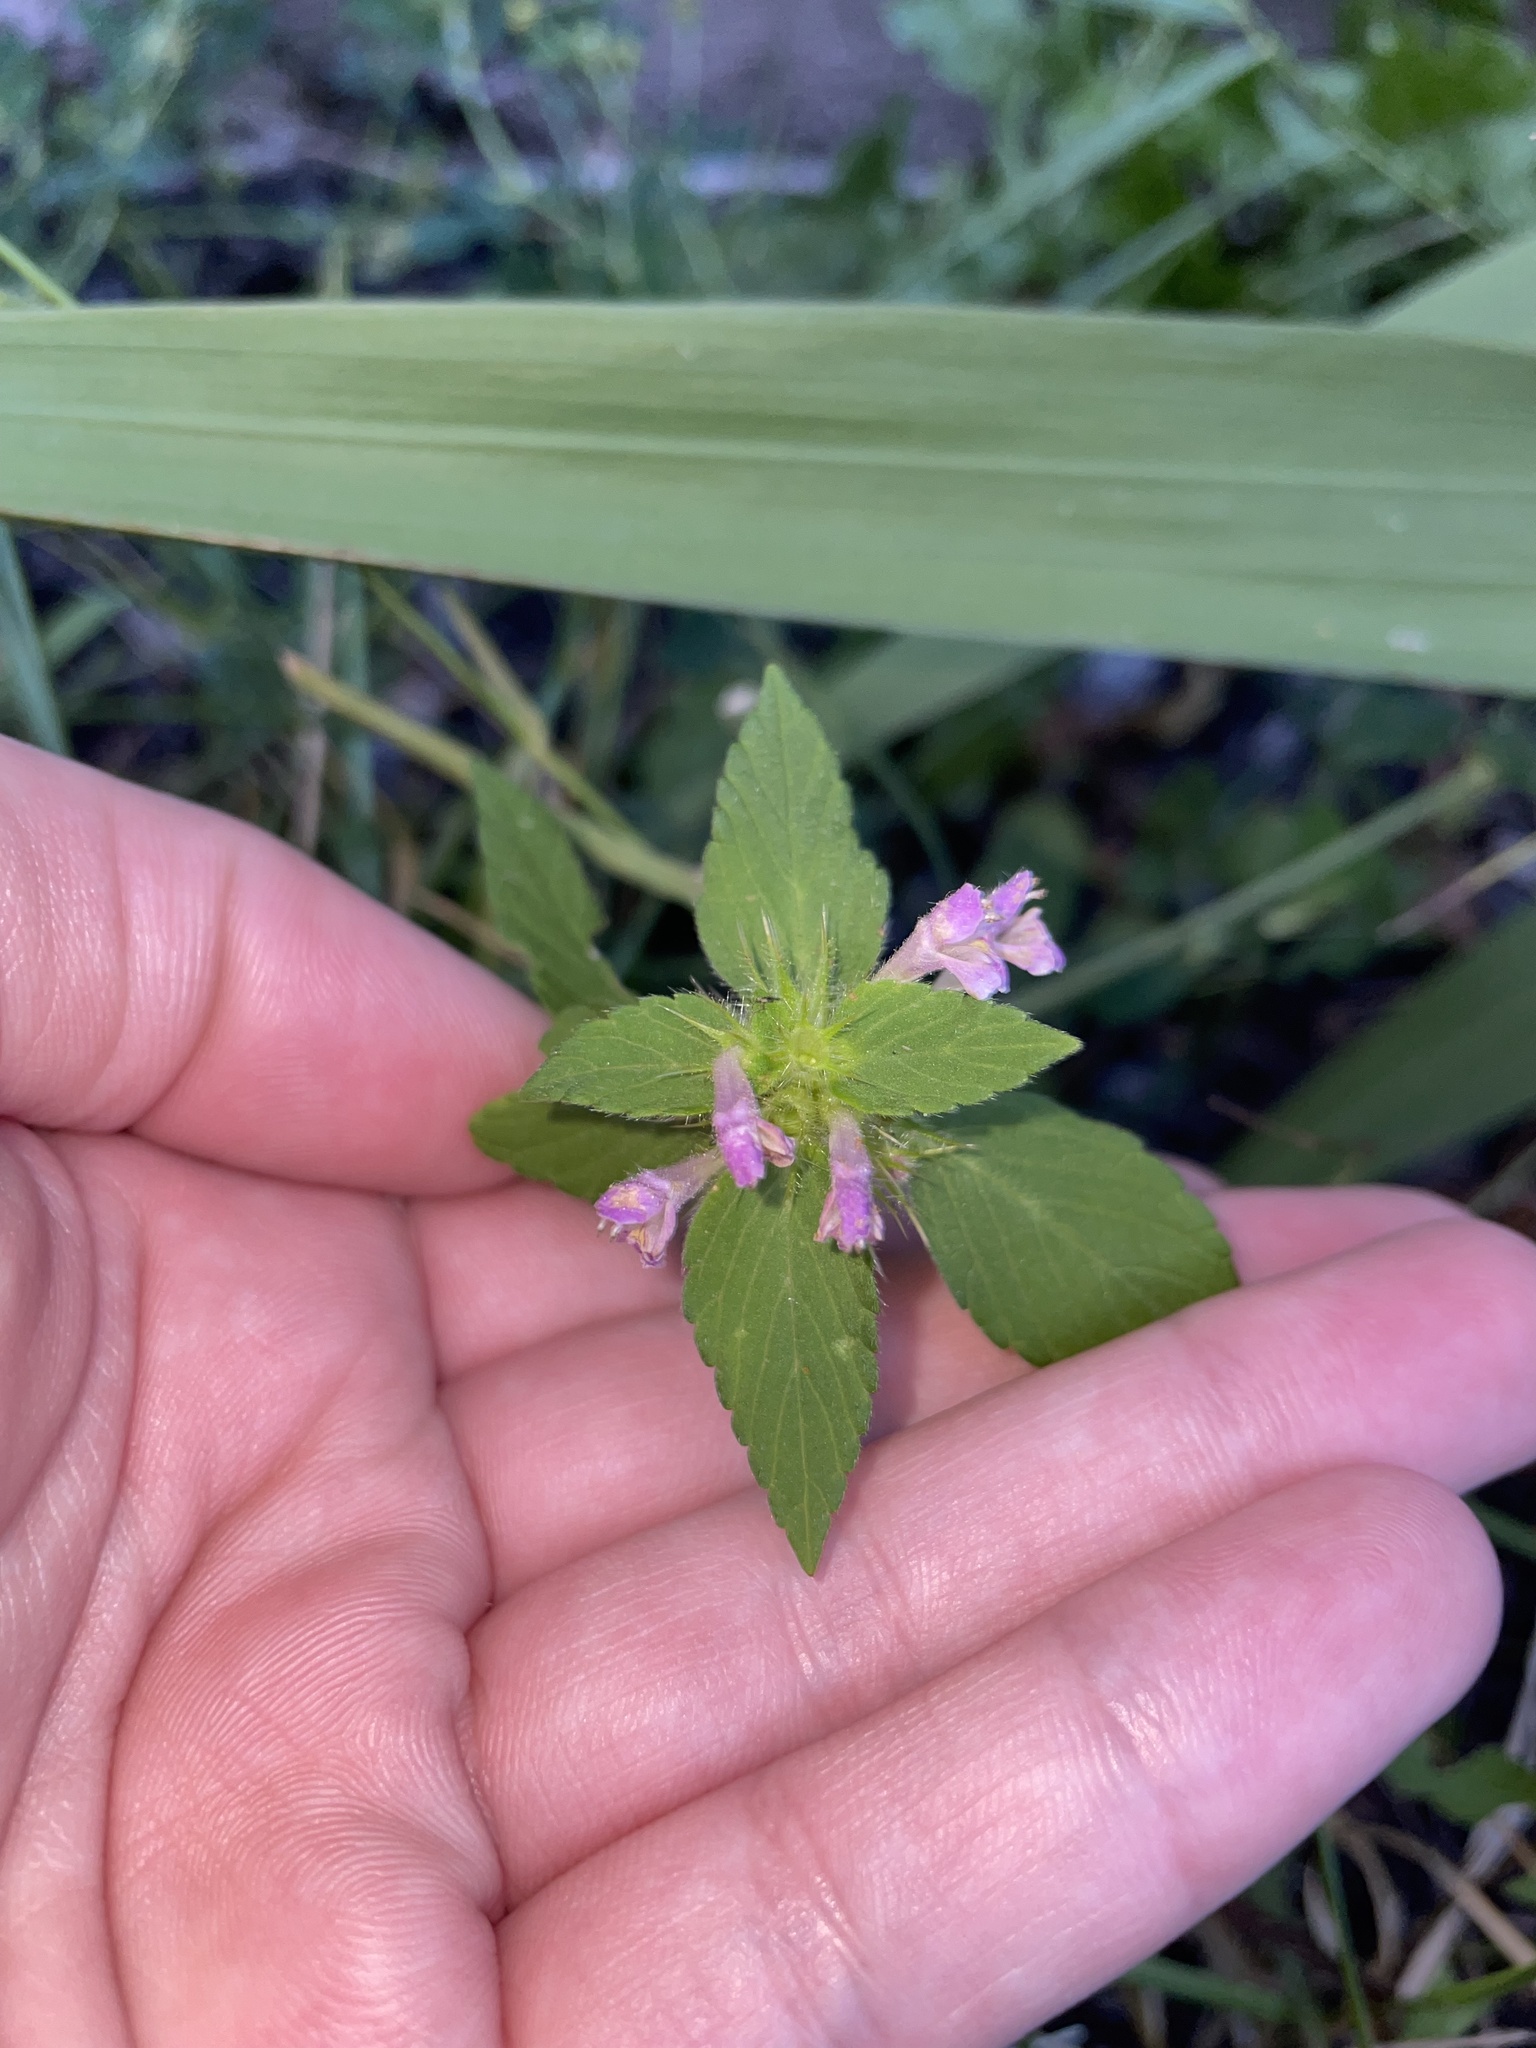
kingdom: Plantae
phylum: Tracheophyta
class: Magnoliopsida
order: Lamiales
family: Lamiaceae
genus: Galeopsis
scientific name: Galeopsis bifida
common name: Bifid hemp-nettle
